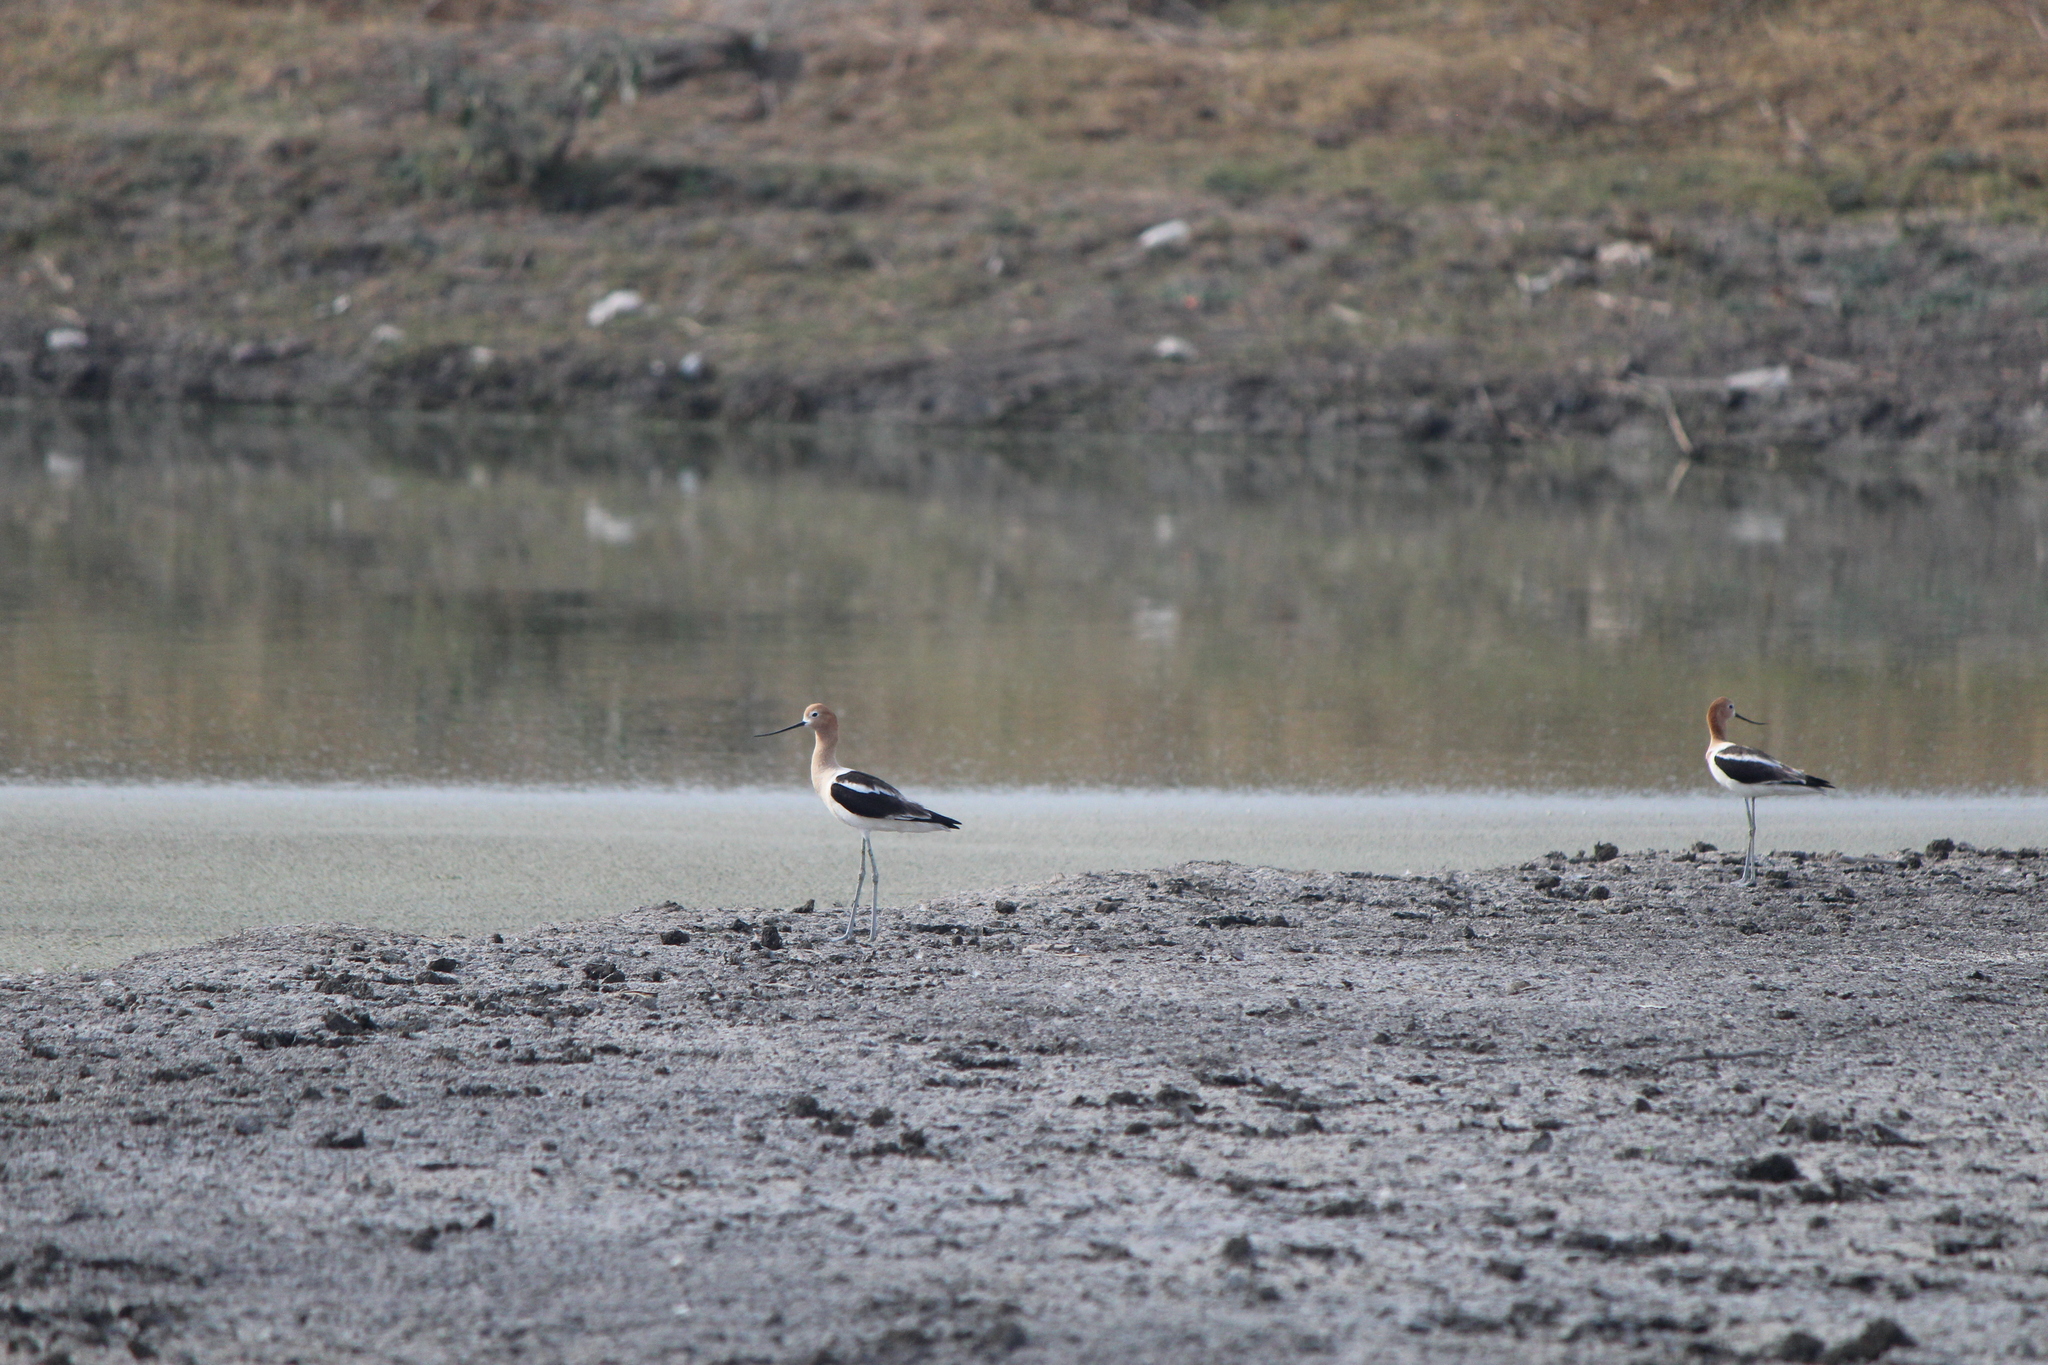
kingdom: Animalia
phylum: Chordata
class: Aves
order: Charadriiformes
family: Recurvirostridae
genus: Recurvirostra
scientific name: Recurvirostra americana
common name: American avocet
